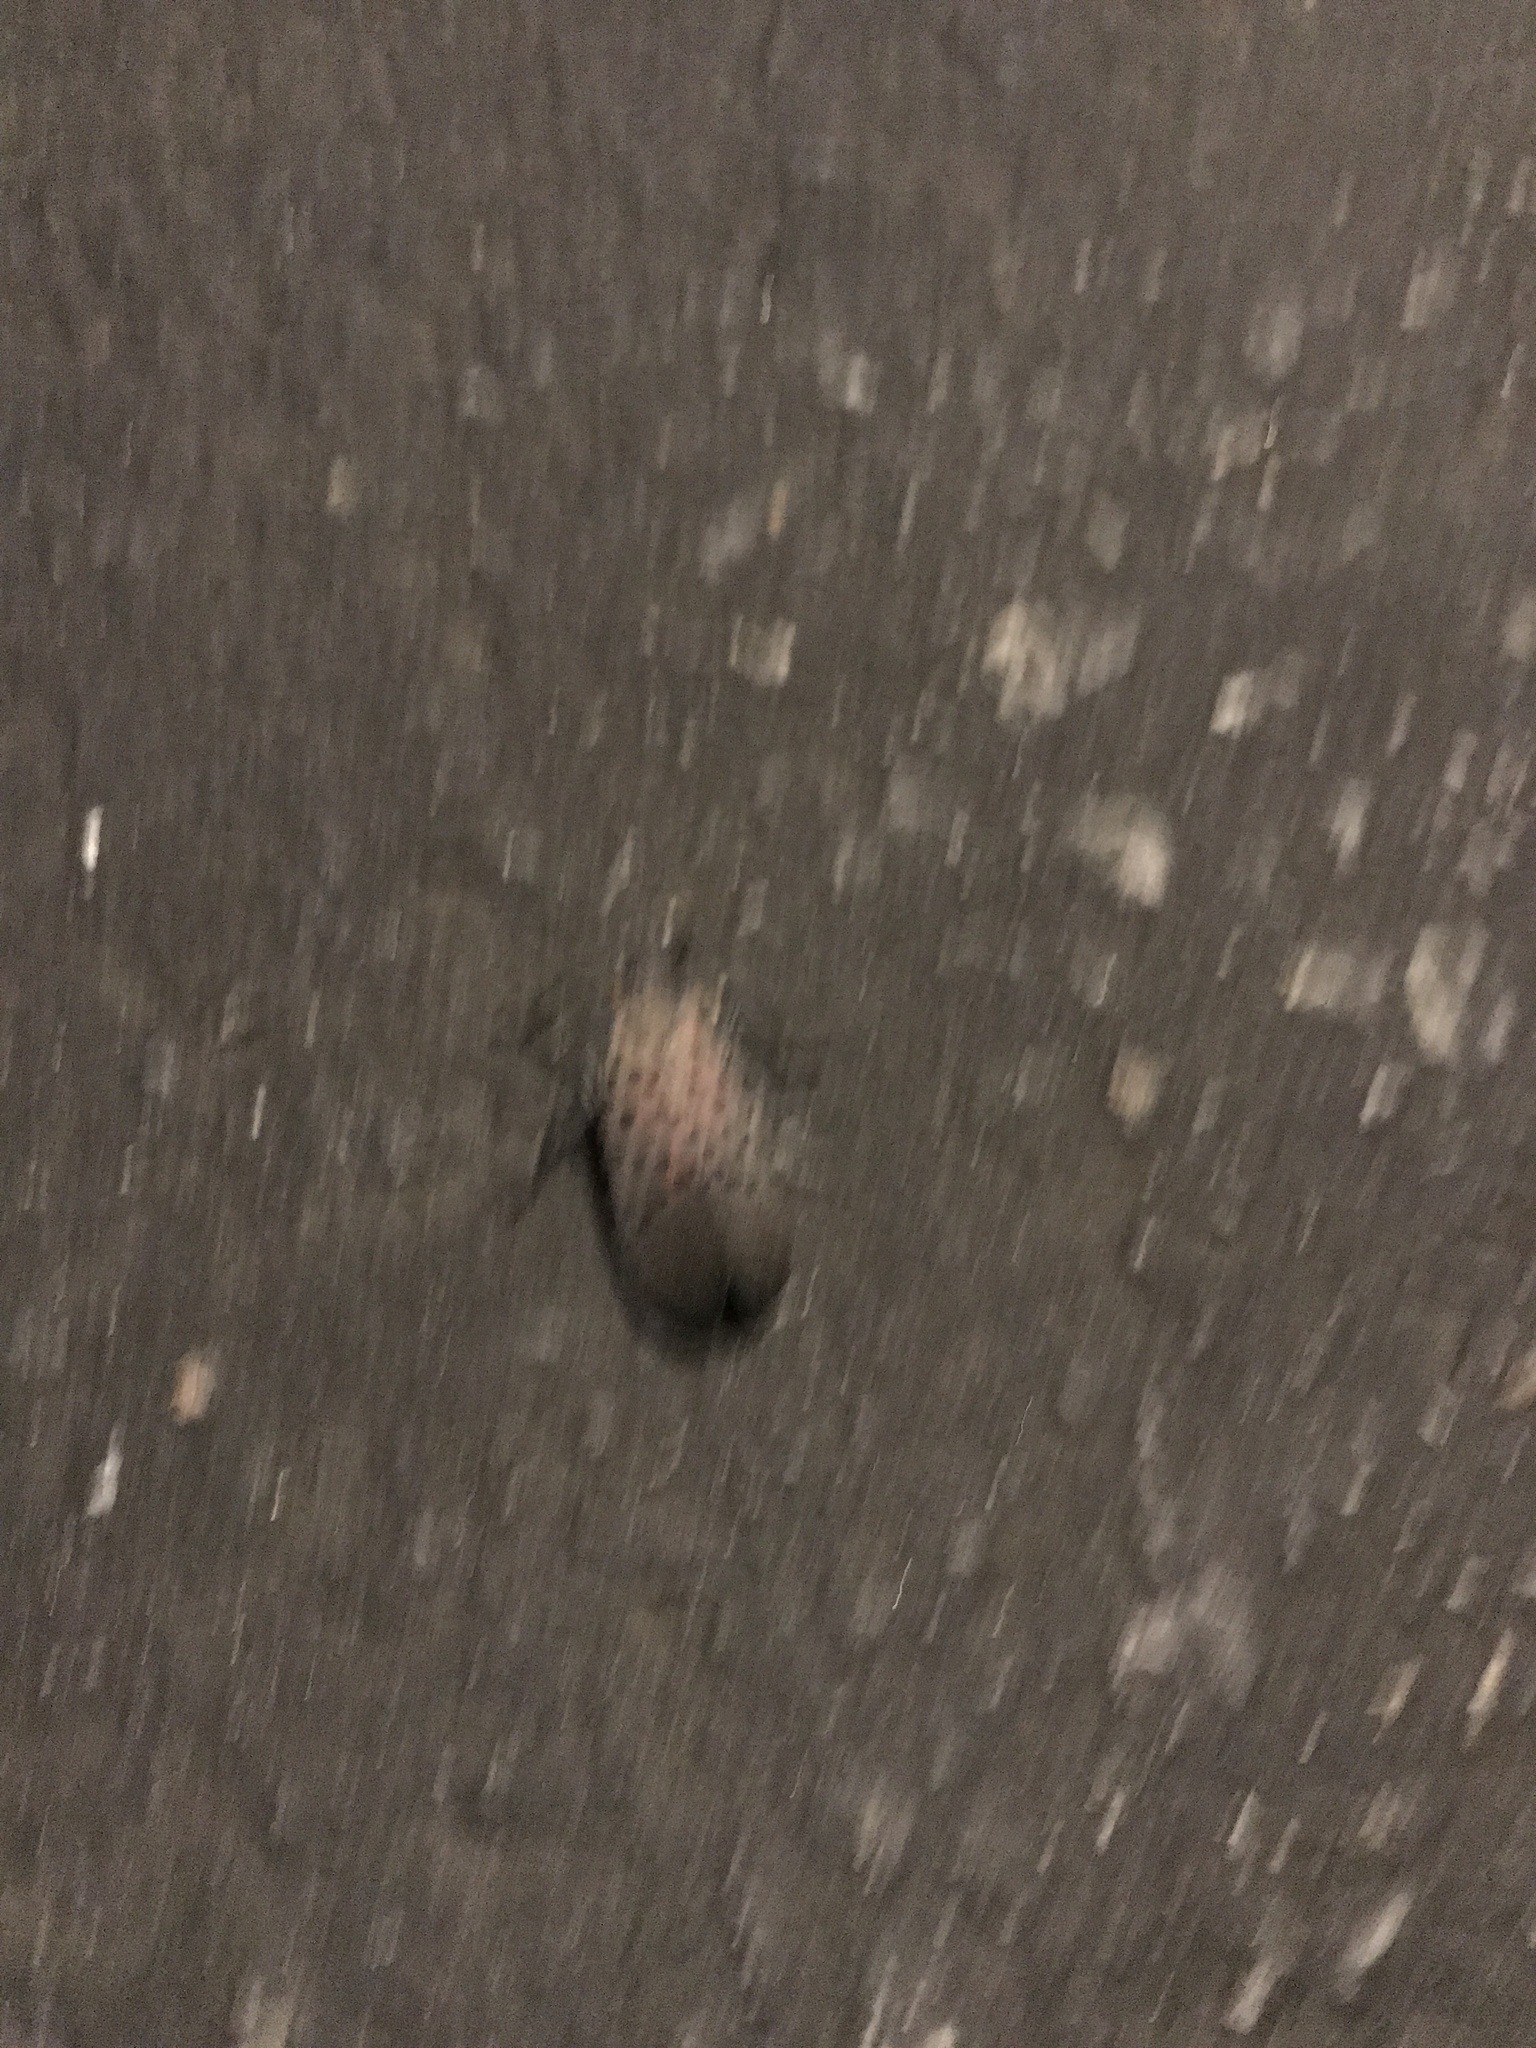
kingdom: Animalia
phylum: Arthropoda
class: Insecta
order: Hemiptera
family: Fulgoridae
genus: Lycorma
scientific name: Lycorma delicatula
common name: Spotted lanternfly
